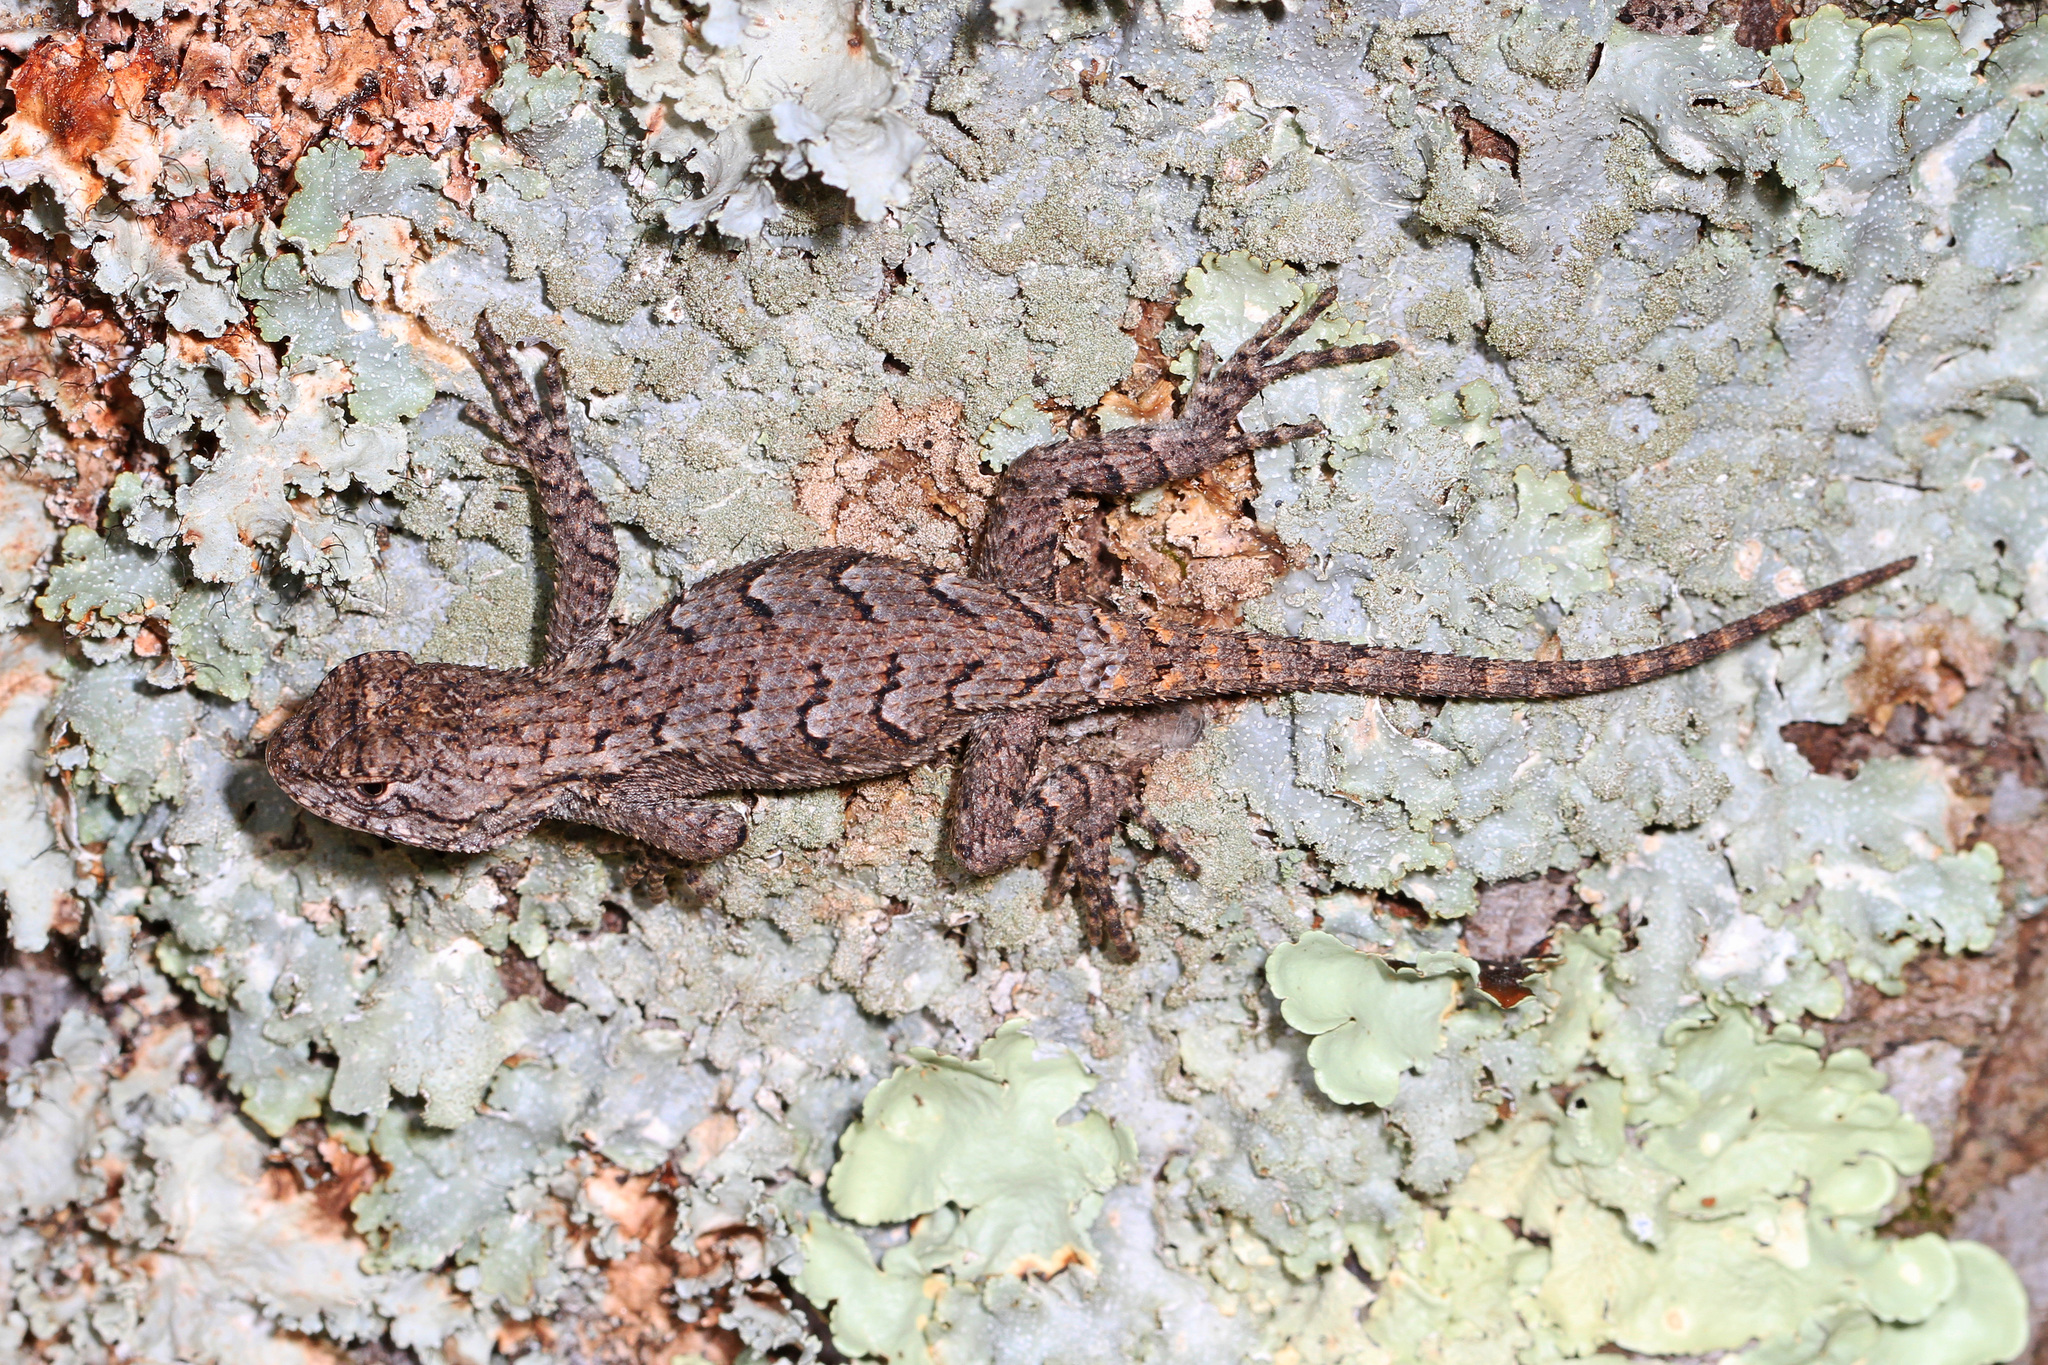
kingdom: Animalia
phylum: Chordata
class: Squamata
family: Phrynosomatidae
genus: Sceloporus
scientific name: Sceloporus undulatus
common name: Eastern fence lizard
